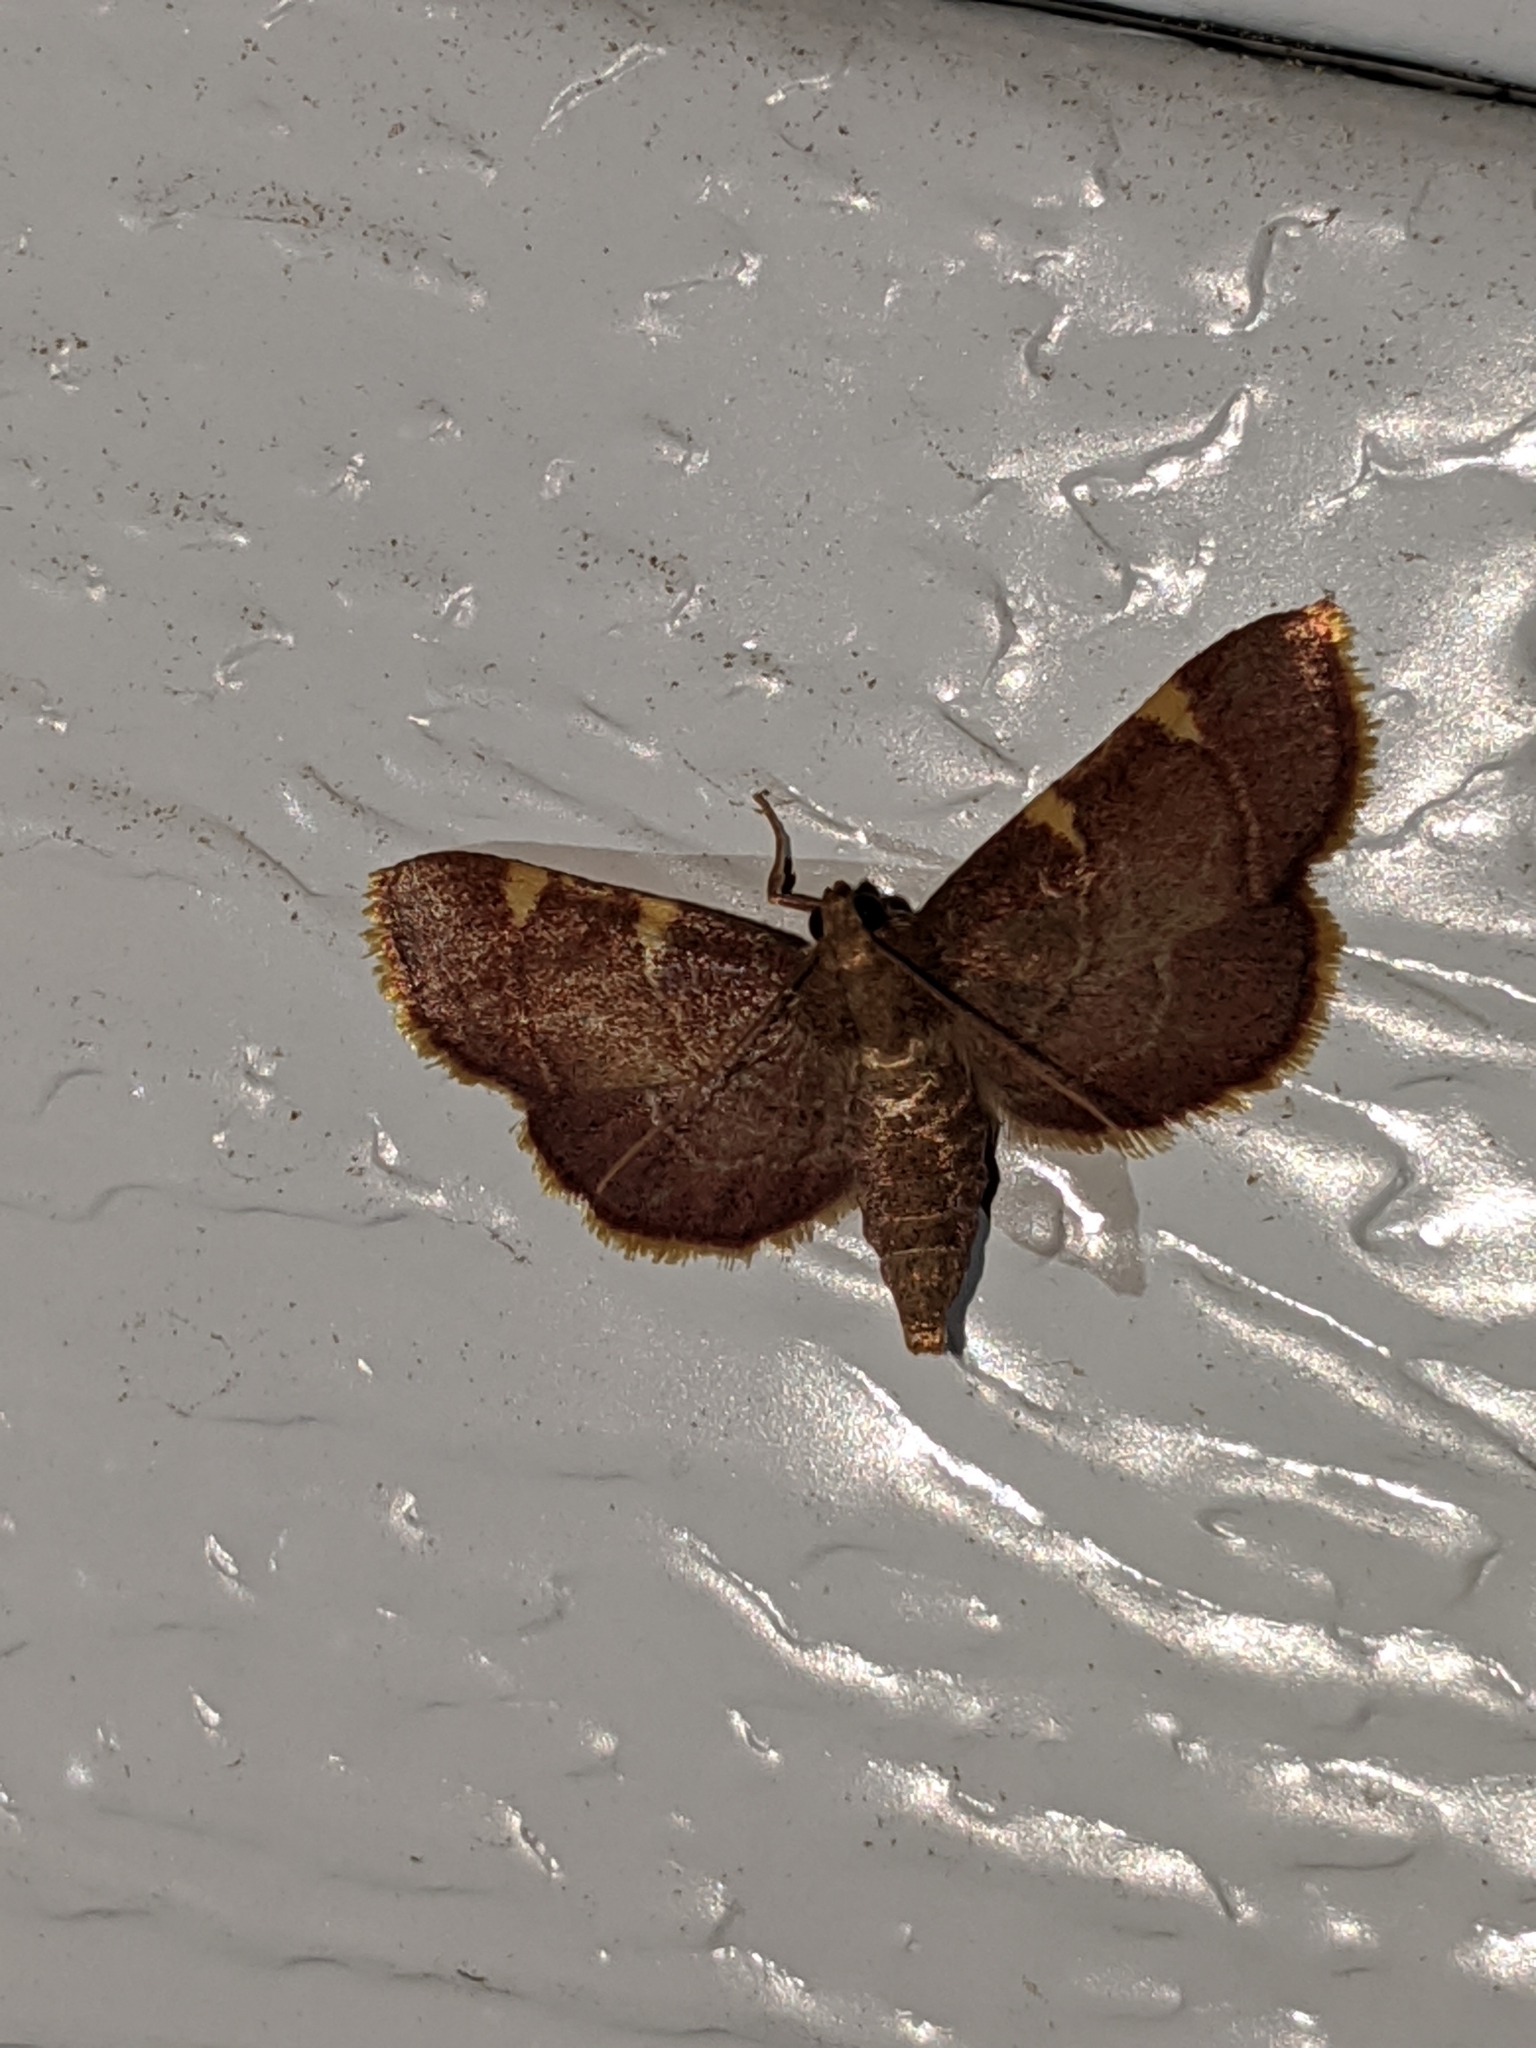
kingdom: Animalia
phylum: Arthropoda
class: Insecta
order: Lepidoptera
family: Pyralidae
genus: Hypsopygia
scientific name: Hypsopygia olinalis
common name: Yellow-fringed dolichomia moth
